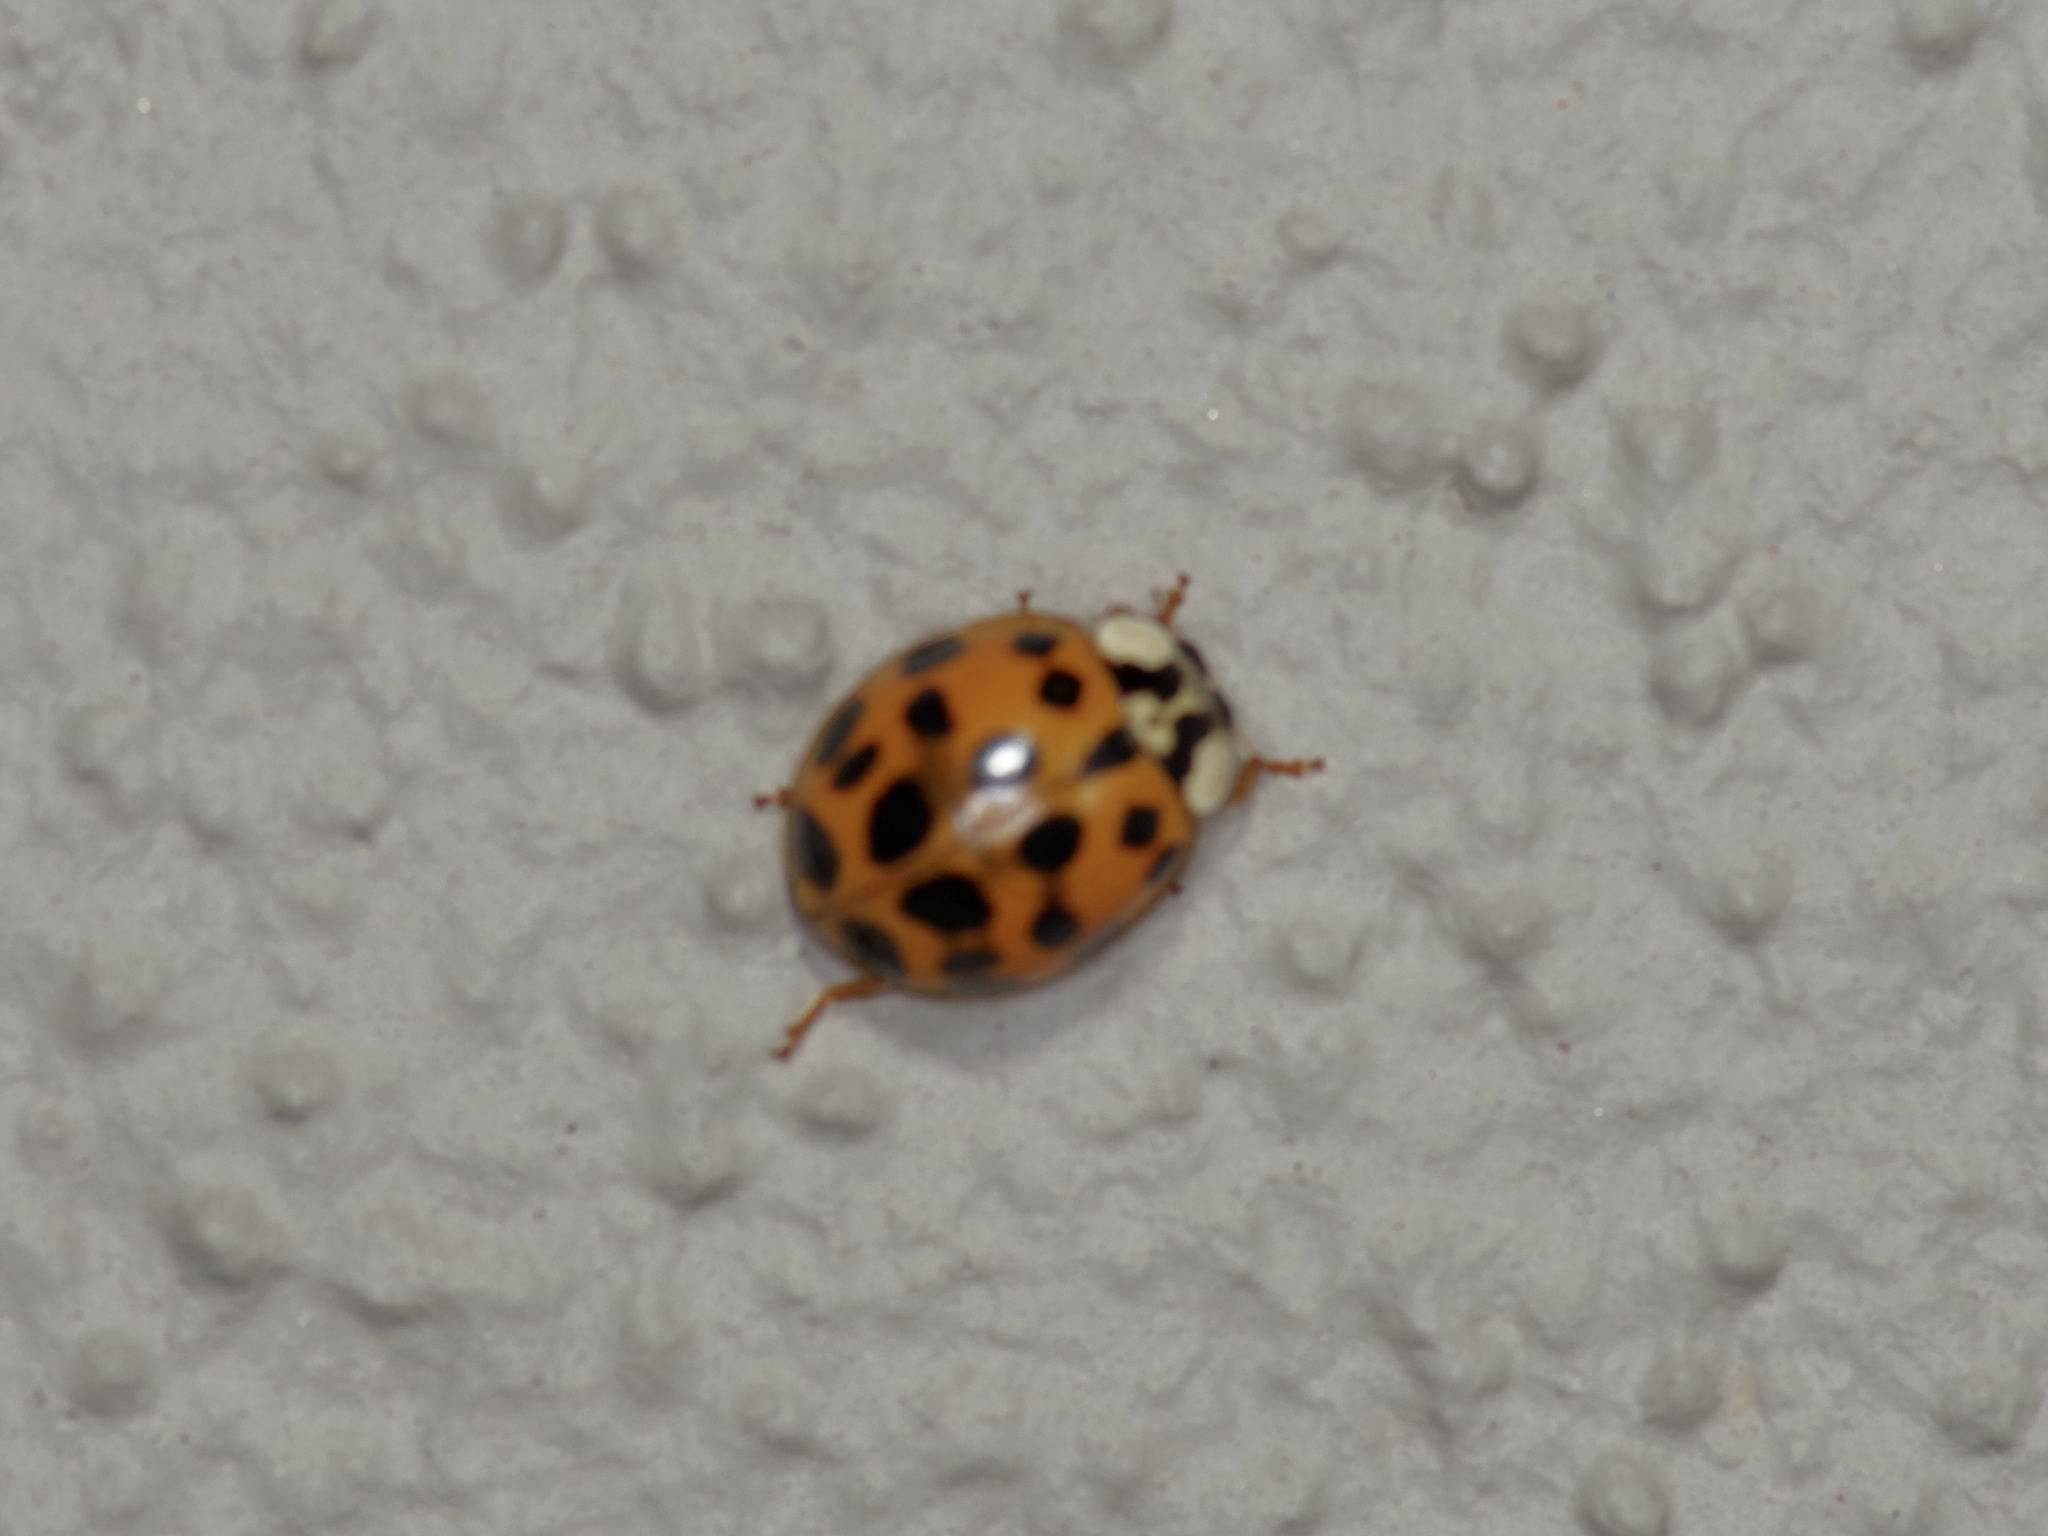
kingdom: Animalia
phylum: Arthropoda
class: Insecta
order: Coleoptera
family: Coccinellidae
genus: Harmonia
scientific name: Harmonia axyridis
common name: Harlequin ladybird
